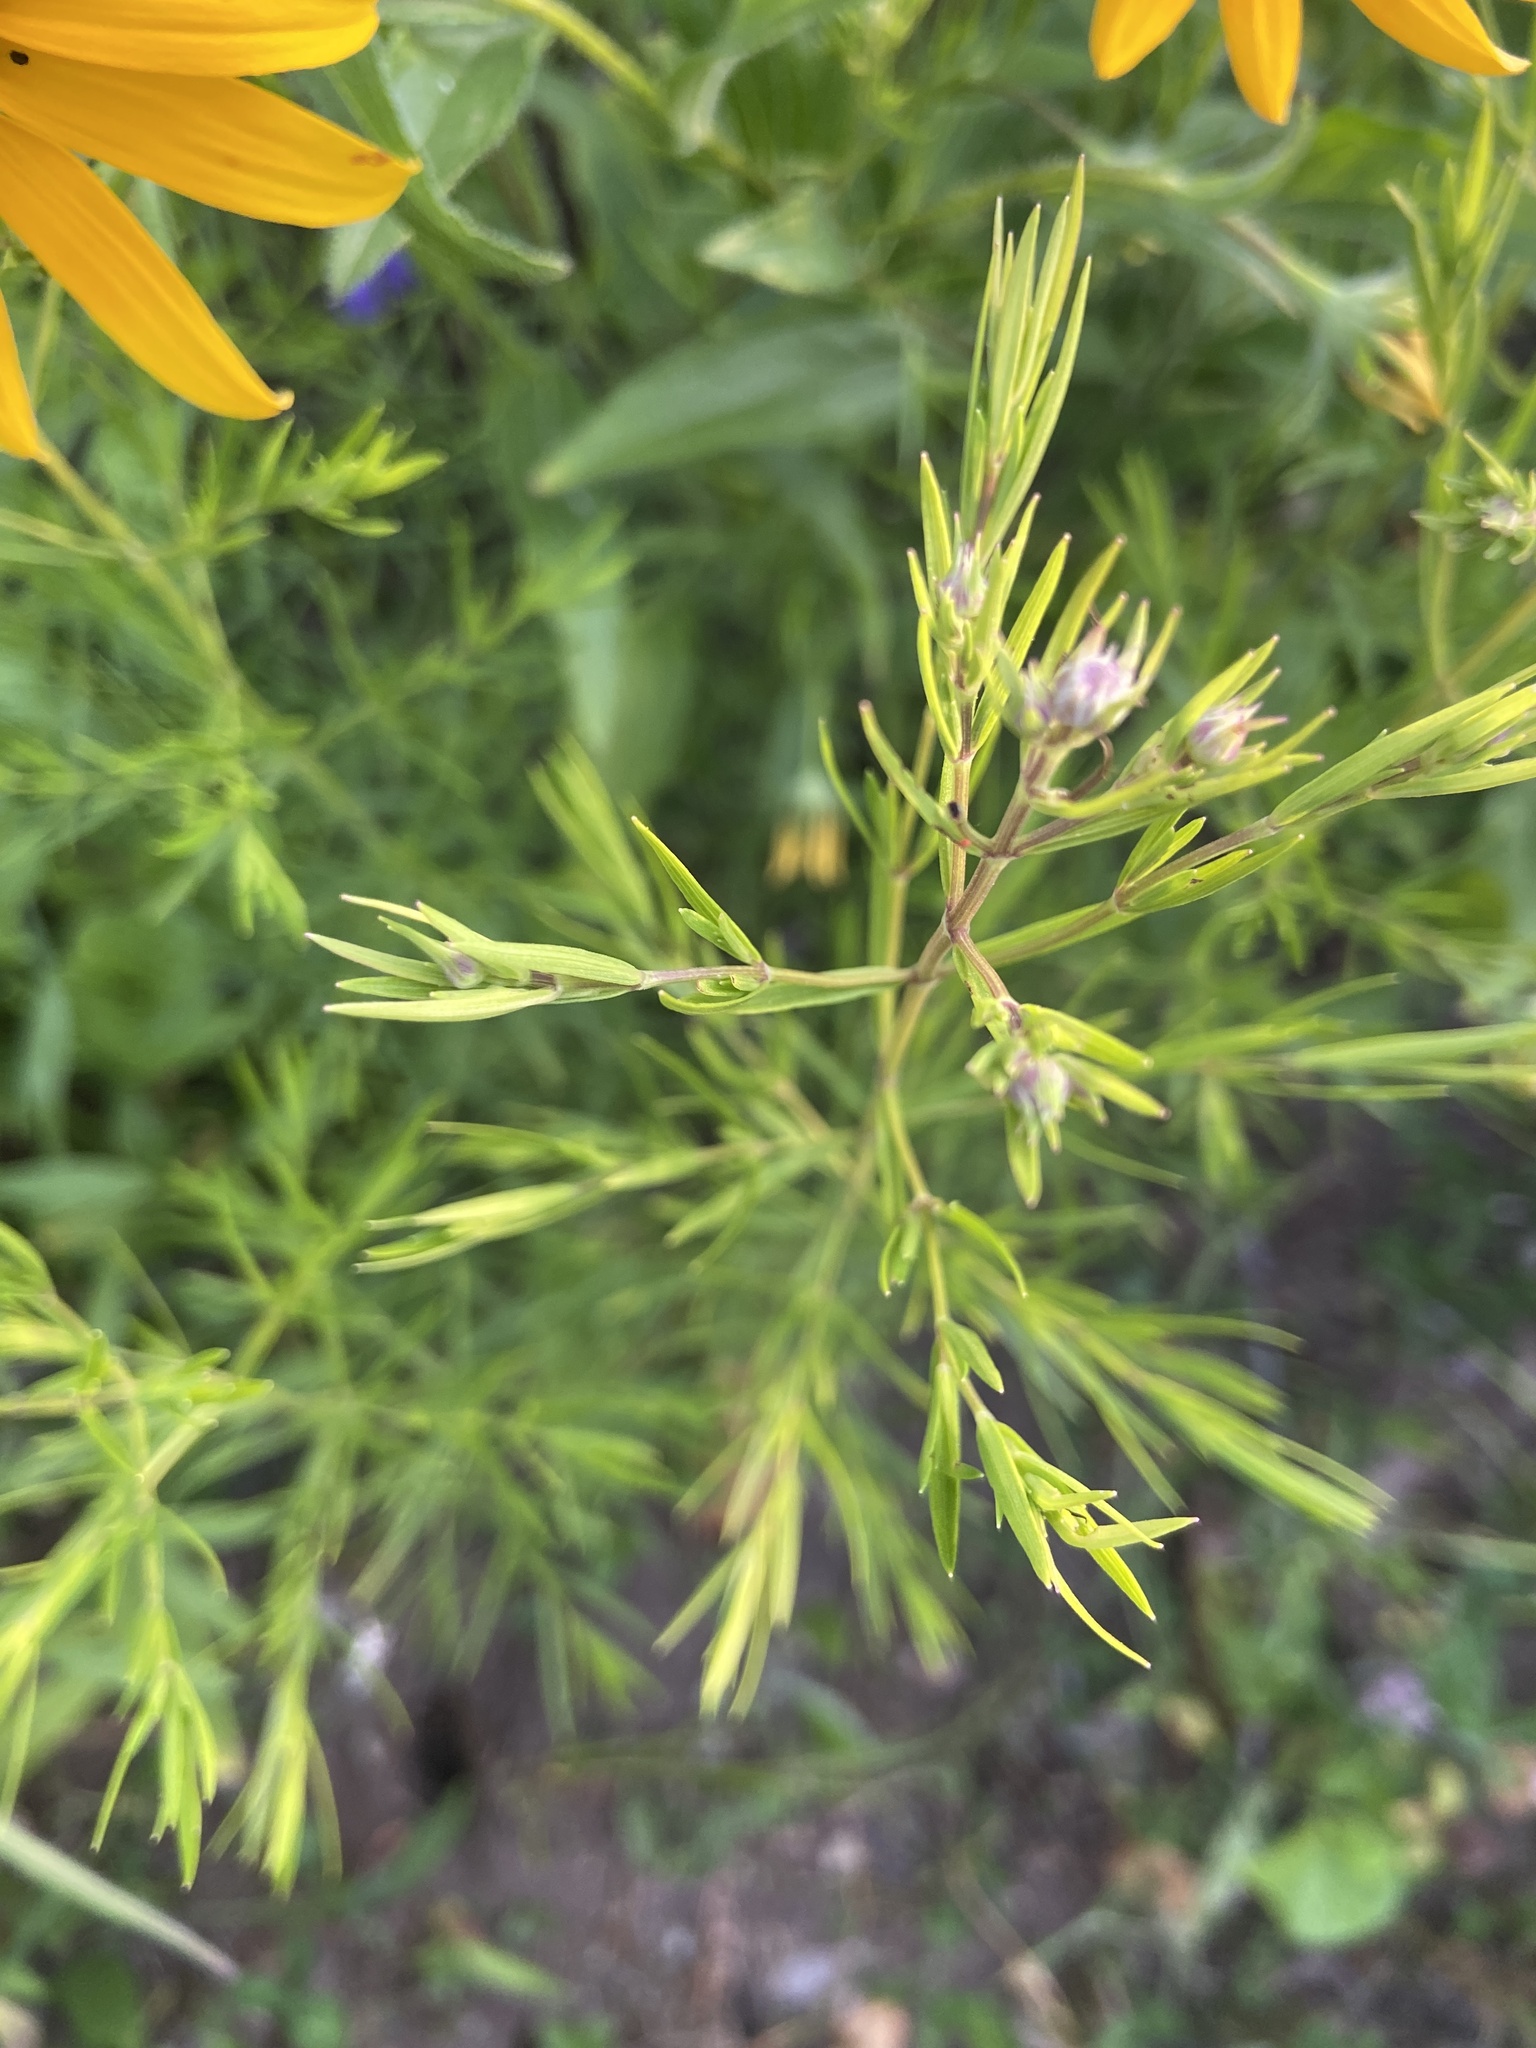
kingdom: Plantae
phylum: Tracheophyta
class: Magnoliopsida
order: Lamiales
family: Lamiaceae
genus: Pycnanthemum
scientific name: Pycnanthemum tenuifolium
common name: Narrow-leaf mountain-mint
